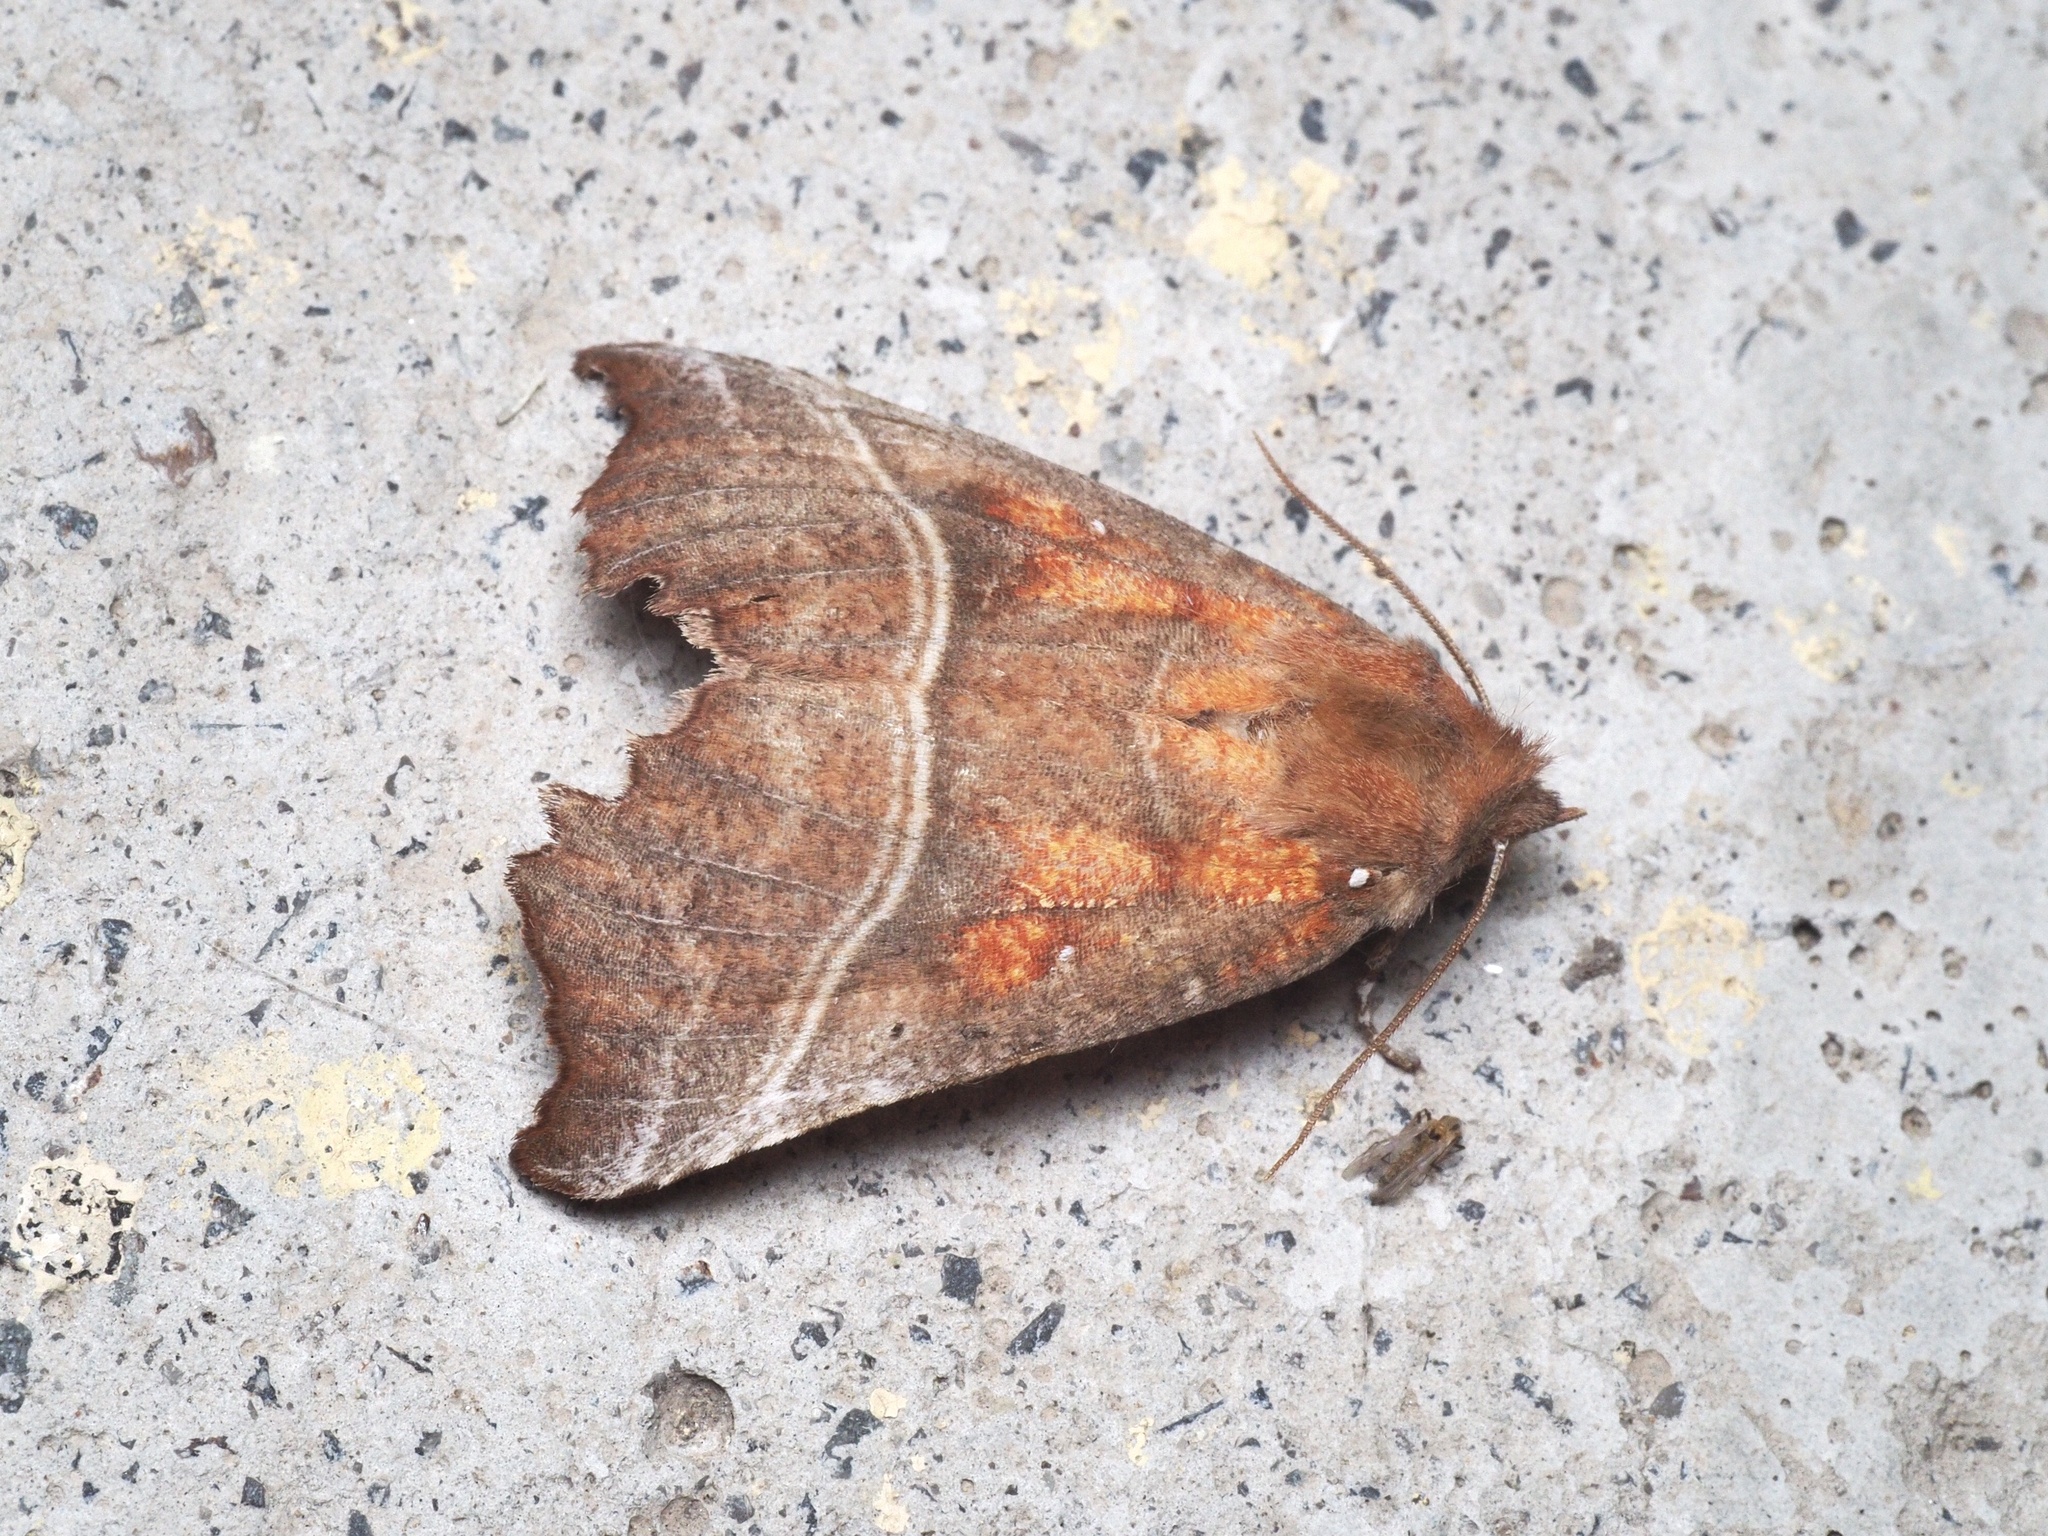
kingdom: Animalia
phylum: Arthropoda
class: Insecta
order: Lepidoptera
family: Erebidae
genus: Scoliopteryx
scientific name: Scoliopteryx libatrix
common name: Herald
